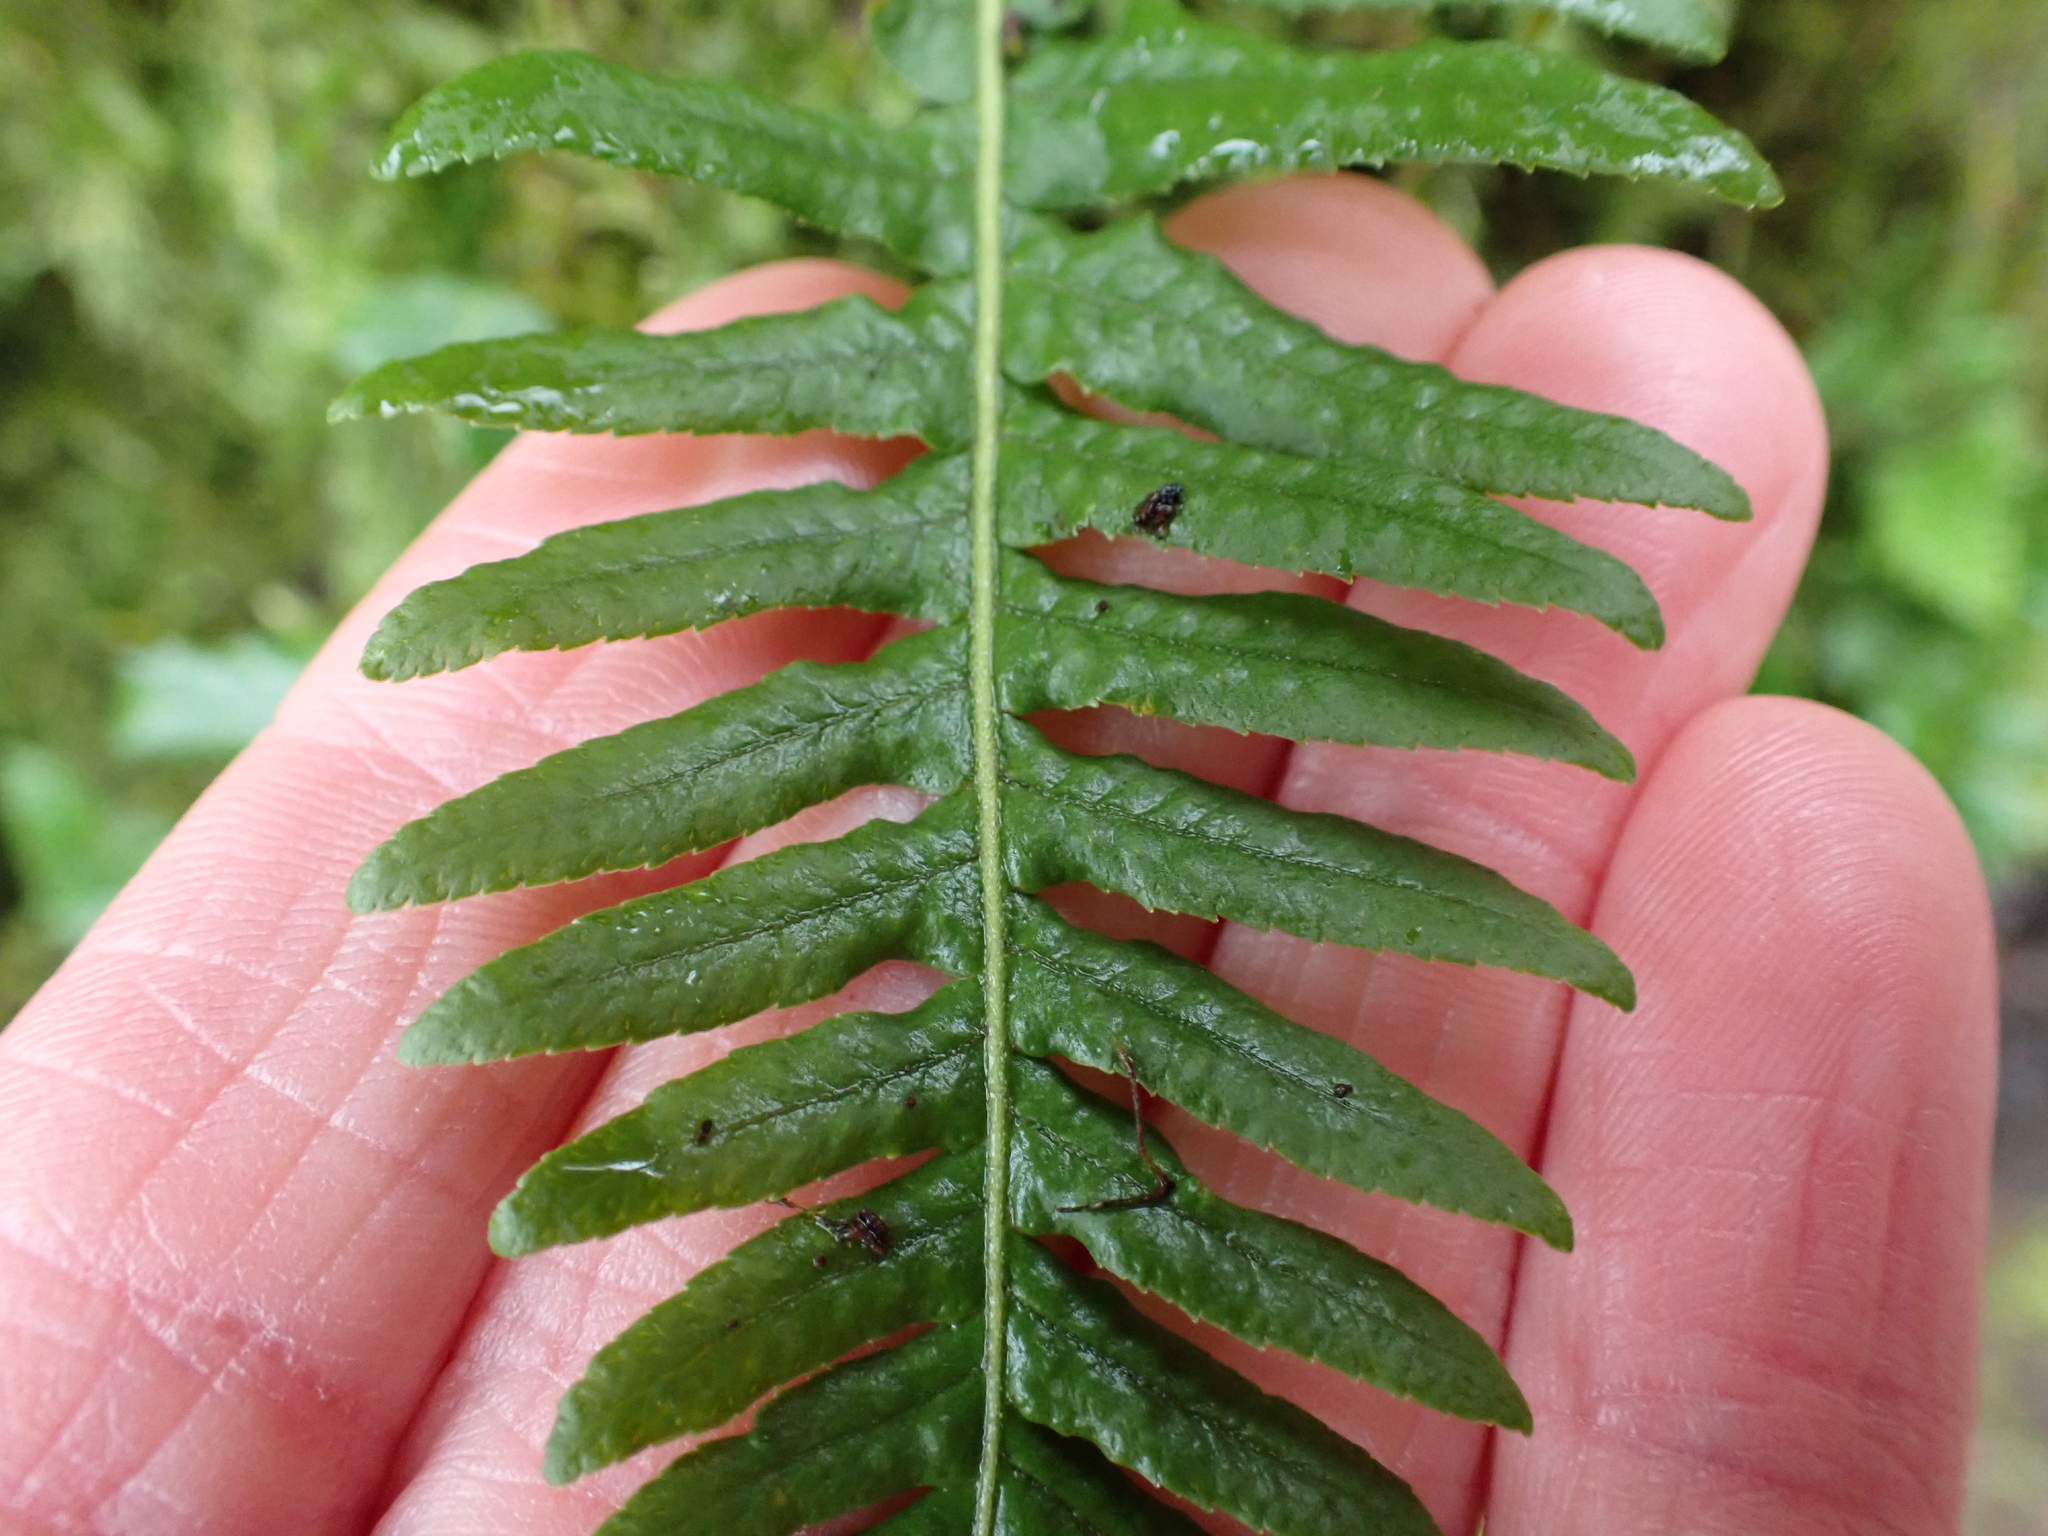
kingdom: Plantae
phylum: Tracheophyta
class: Polypodiopsida
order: Polypodiales
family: Polypodiaceae
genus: Polypodium
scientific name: Polypodium glycyrrhiza
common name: Licorice fern
